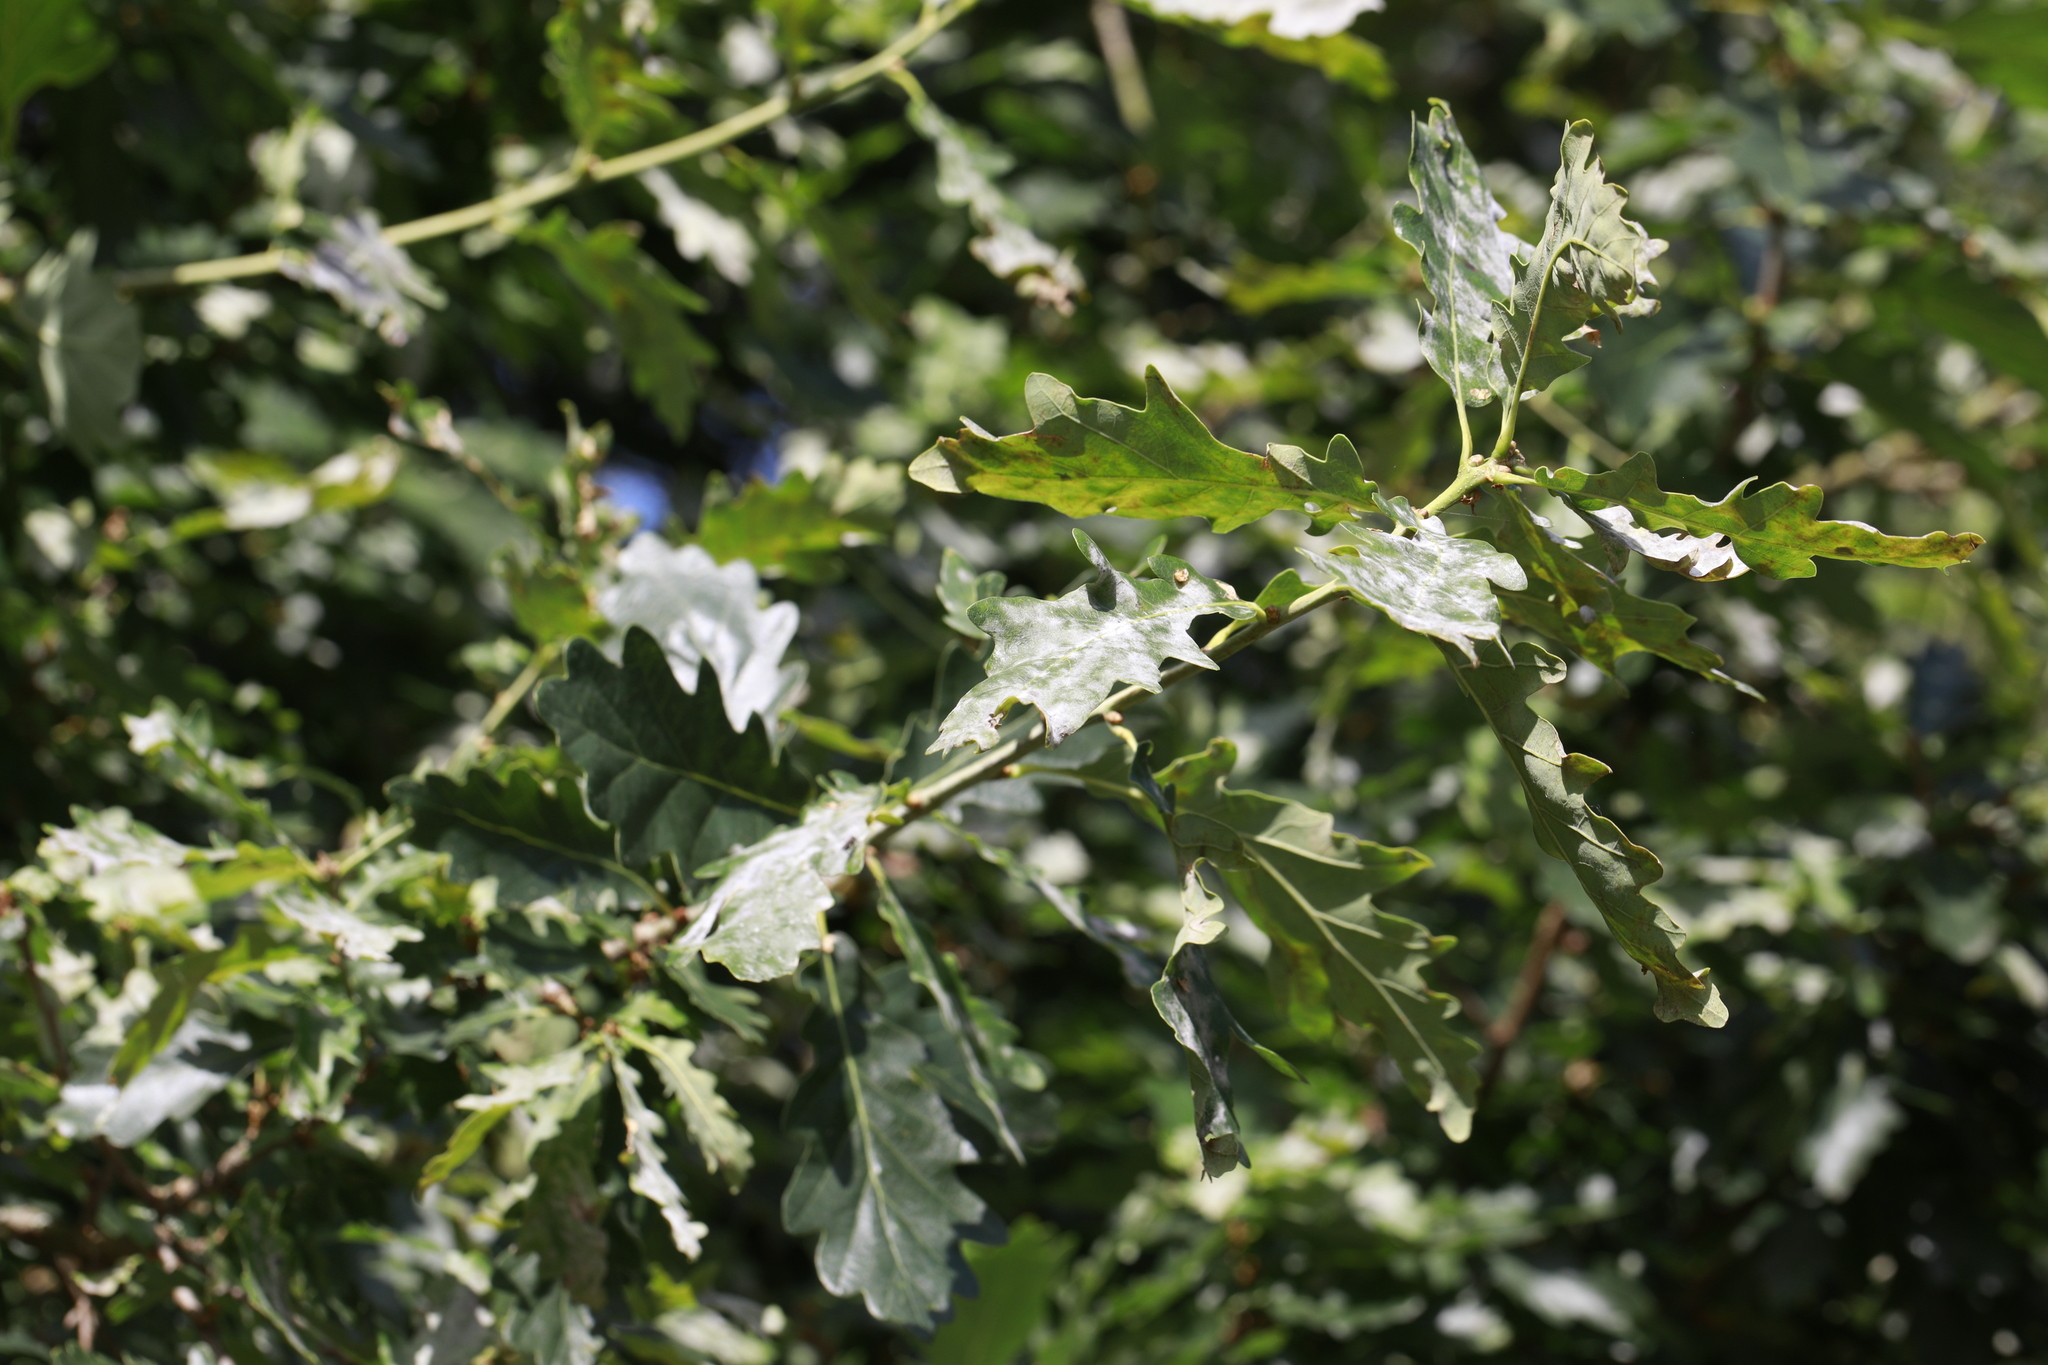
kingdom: Plantae
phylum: Tracheophyta
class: Magnoliopsida
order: Fagales
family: Fagaceae
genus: Quercus
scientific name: Quercus robur
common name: Pedunculate oak
